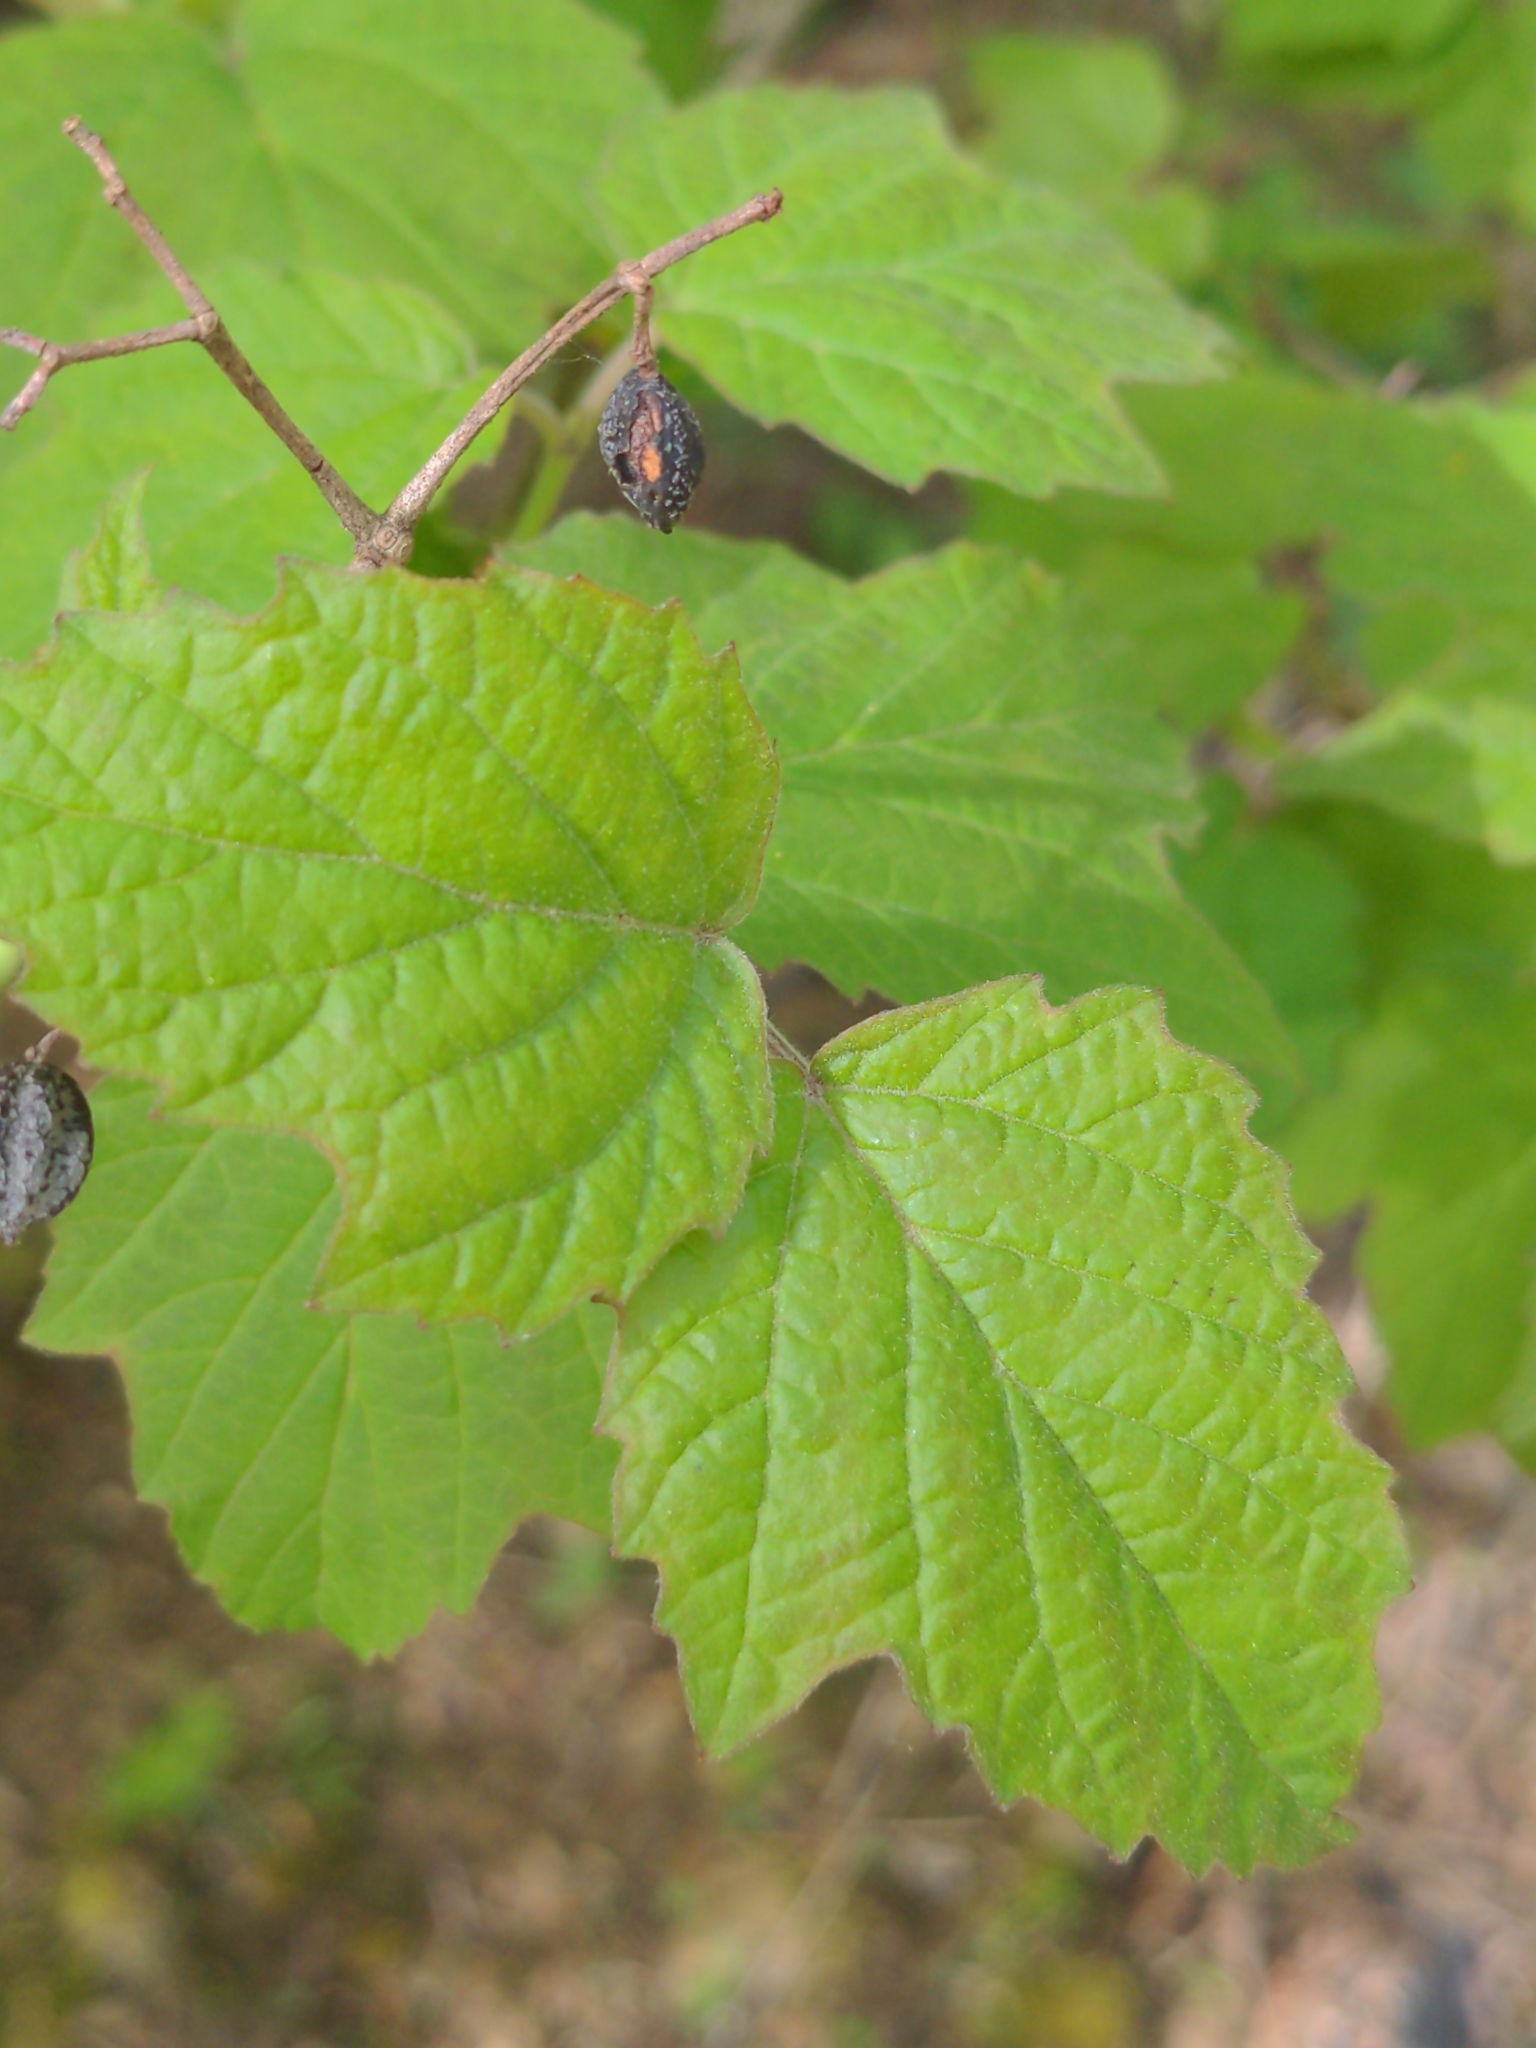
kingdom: Plantae
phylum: Tracheophyta
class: Magnoliopsida
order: Dipsacales
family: Viburnaceae
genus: Viburnum
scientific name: Viburnum acerifolium
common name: Dockmackie
